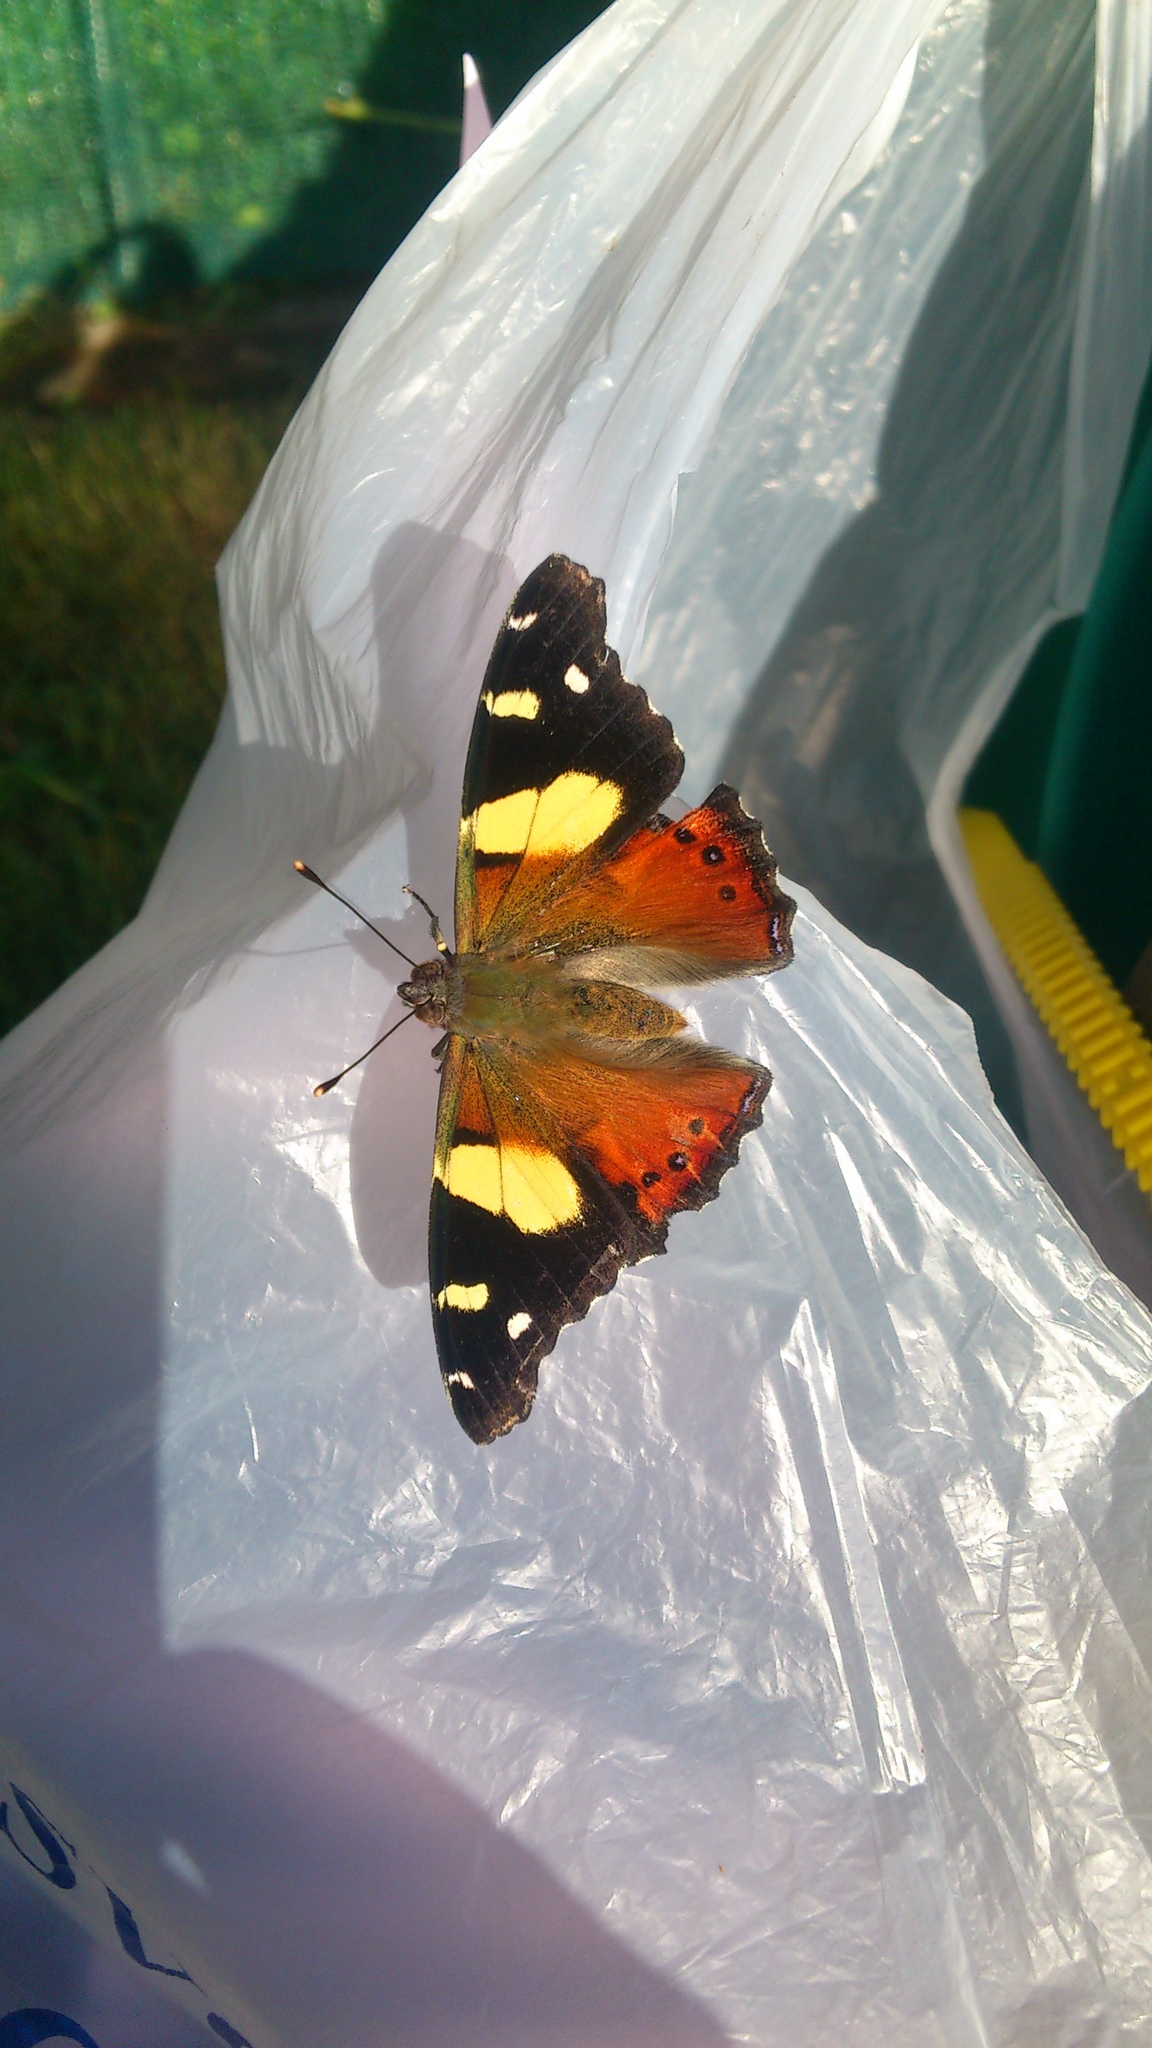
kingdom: Animalia
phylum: Arthropoda
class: Insecta
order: Lepidoptera
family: Nymphalidae
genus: Vanessa
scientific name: Vanessa itea
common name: Yellow admiral
